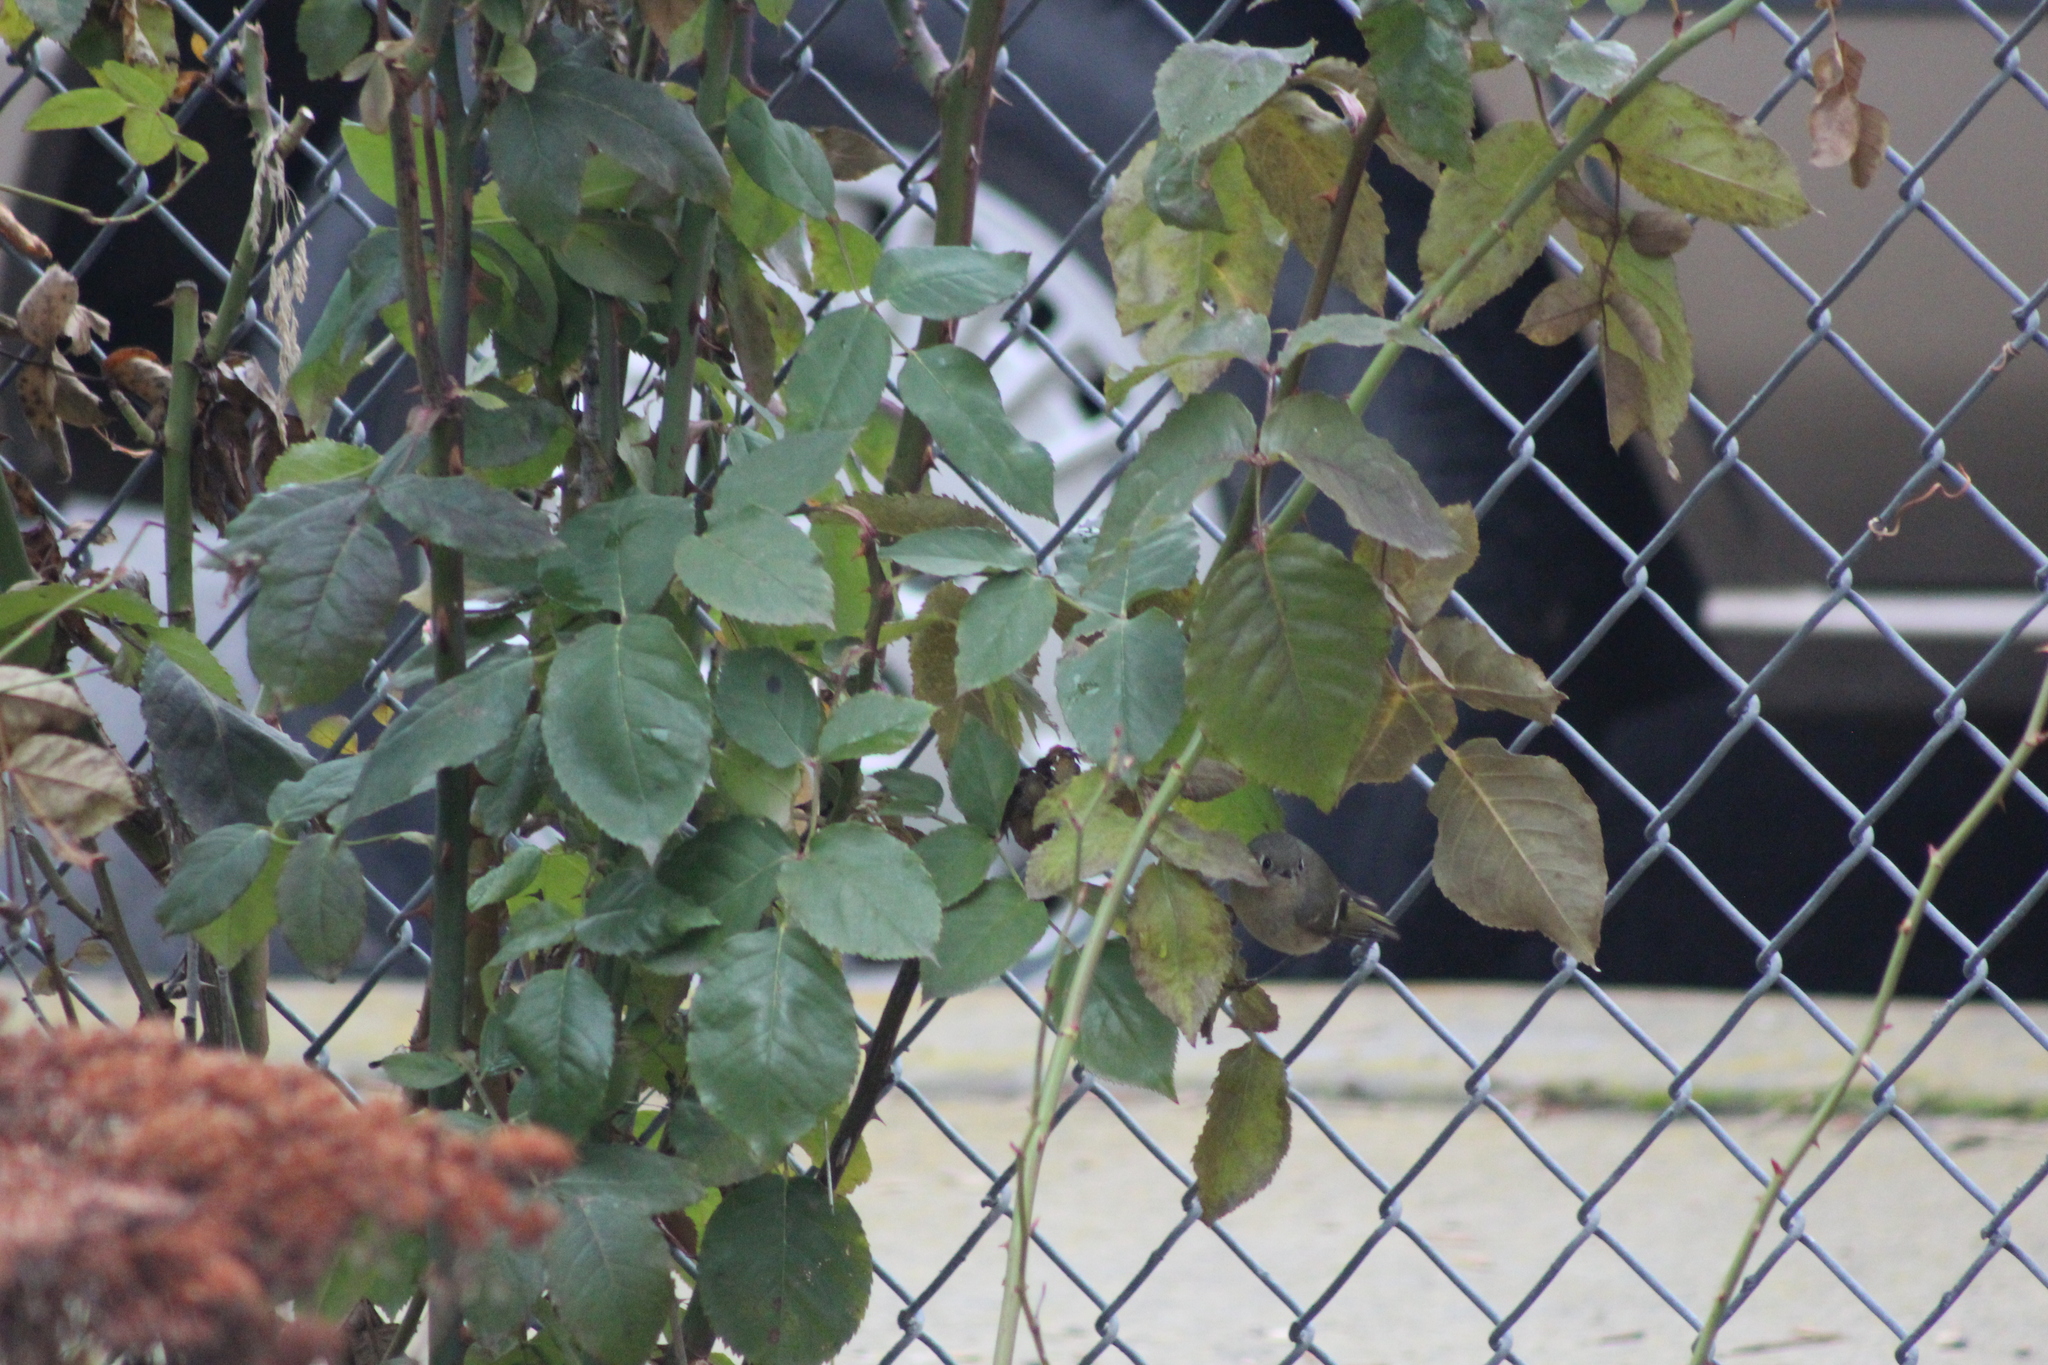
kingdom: Animalia
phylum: Chordata
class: Aves
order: Passeriformes
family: Regulidae
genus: Regulus
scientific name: Regulus calendula
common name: Ruby-crowned kinglet
